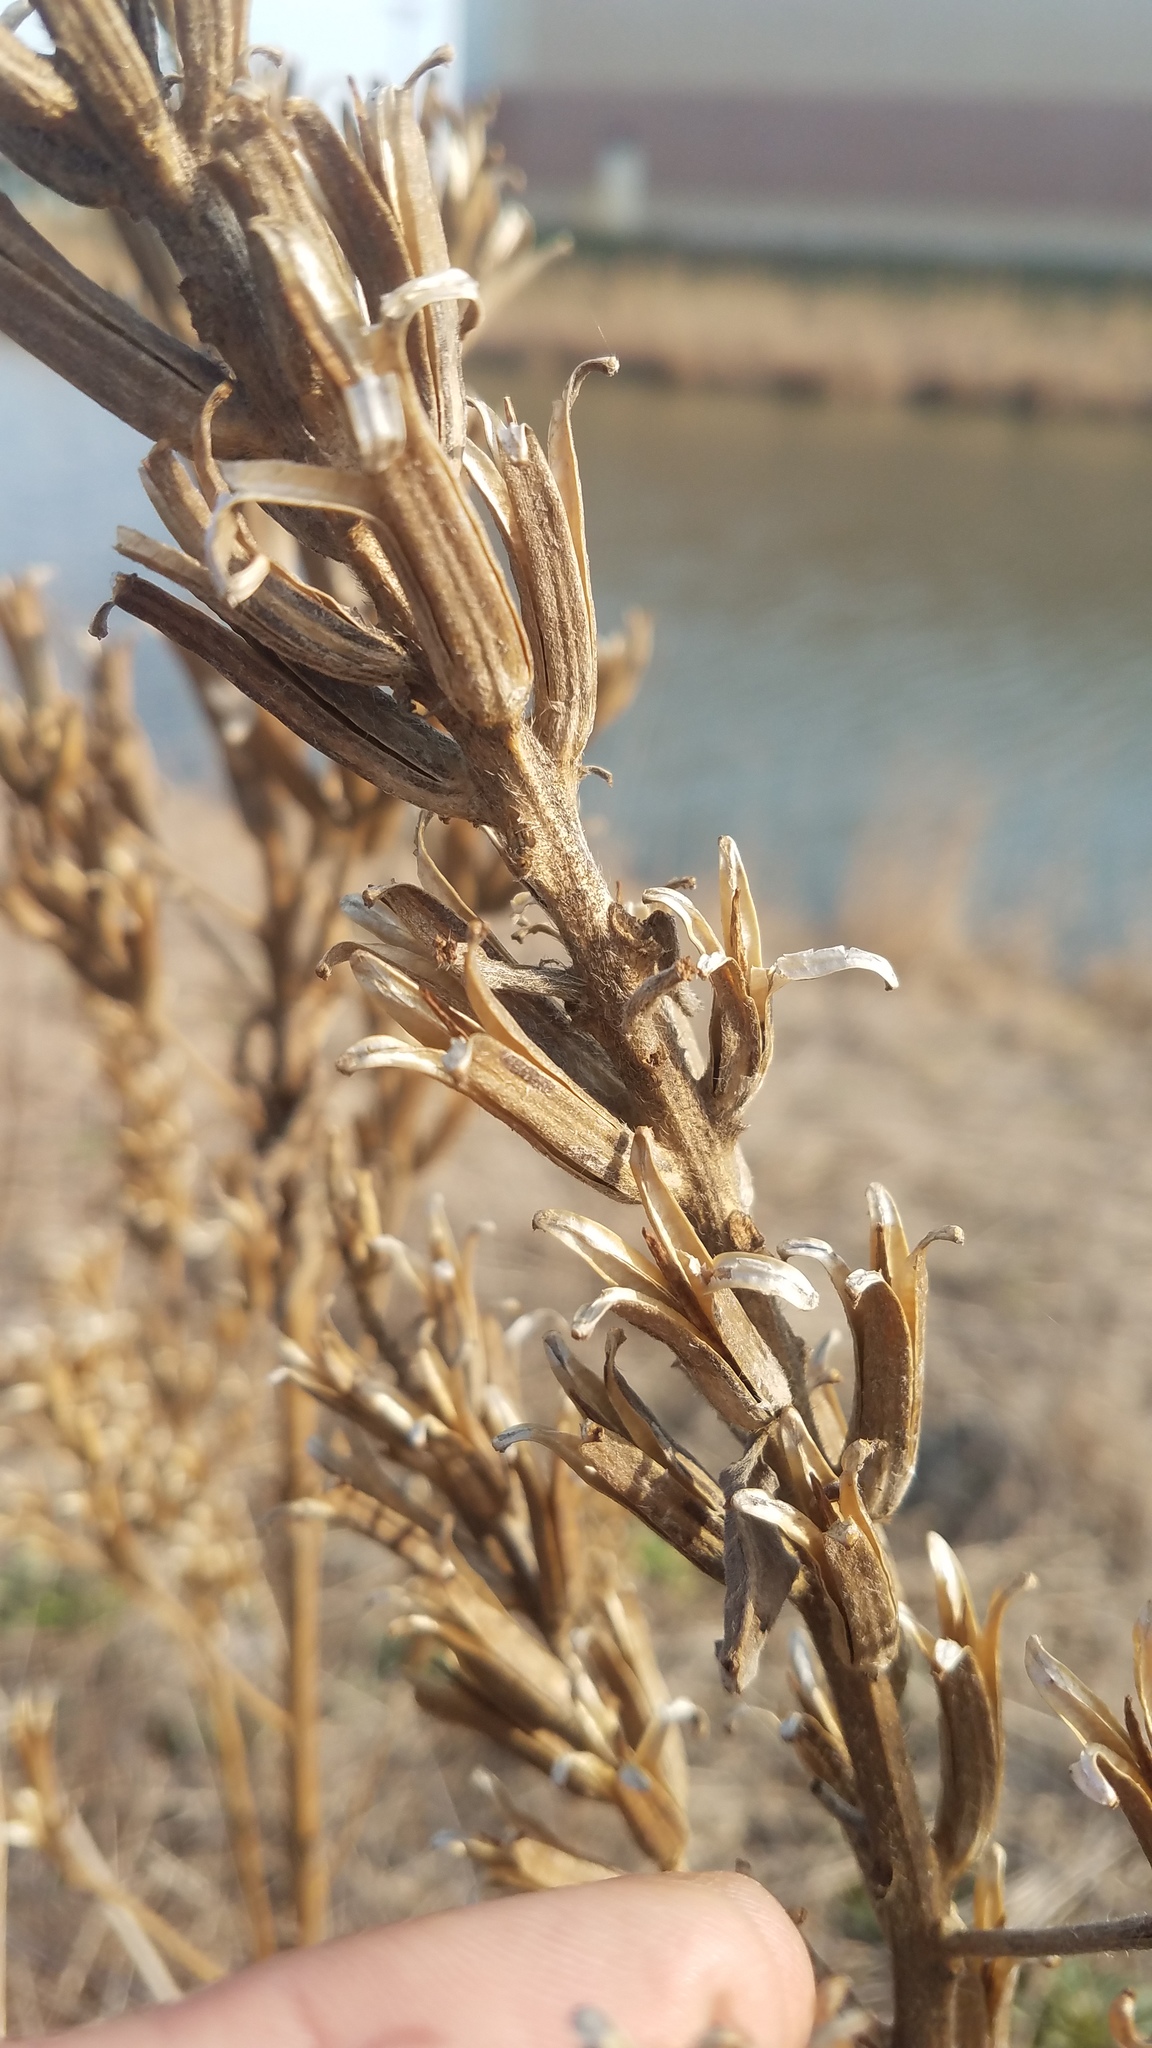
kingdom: Plantae
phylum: Tracheophyta
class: Magnoliopsida
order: Myrtales
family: Onagraceae
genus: Oenothera
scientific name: Oenothera biennis
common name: Common evening-primrose
